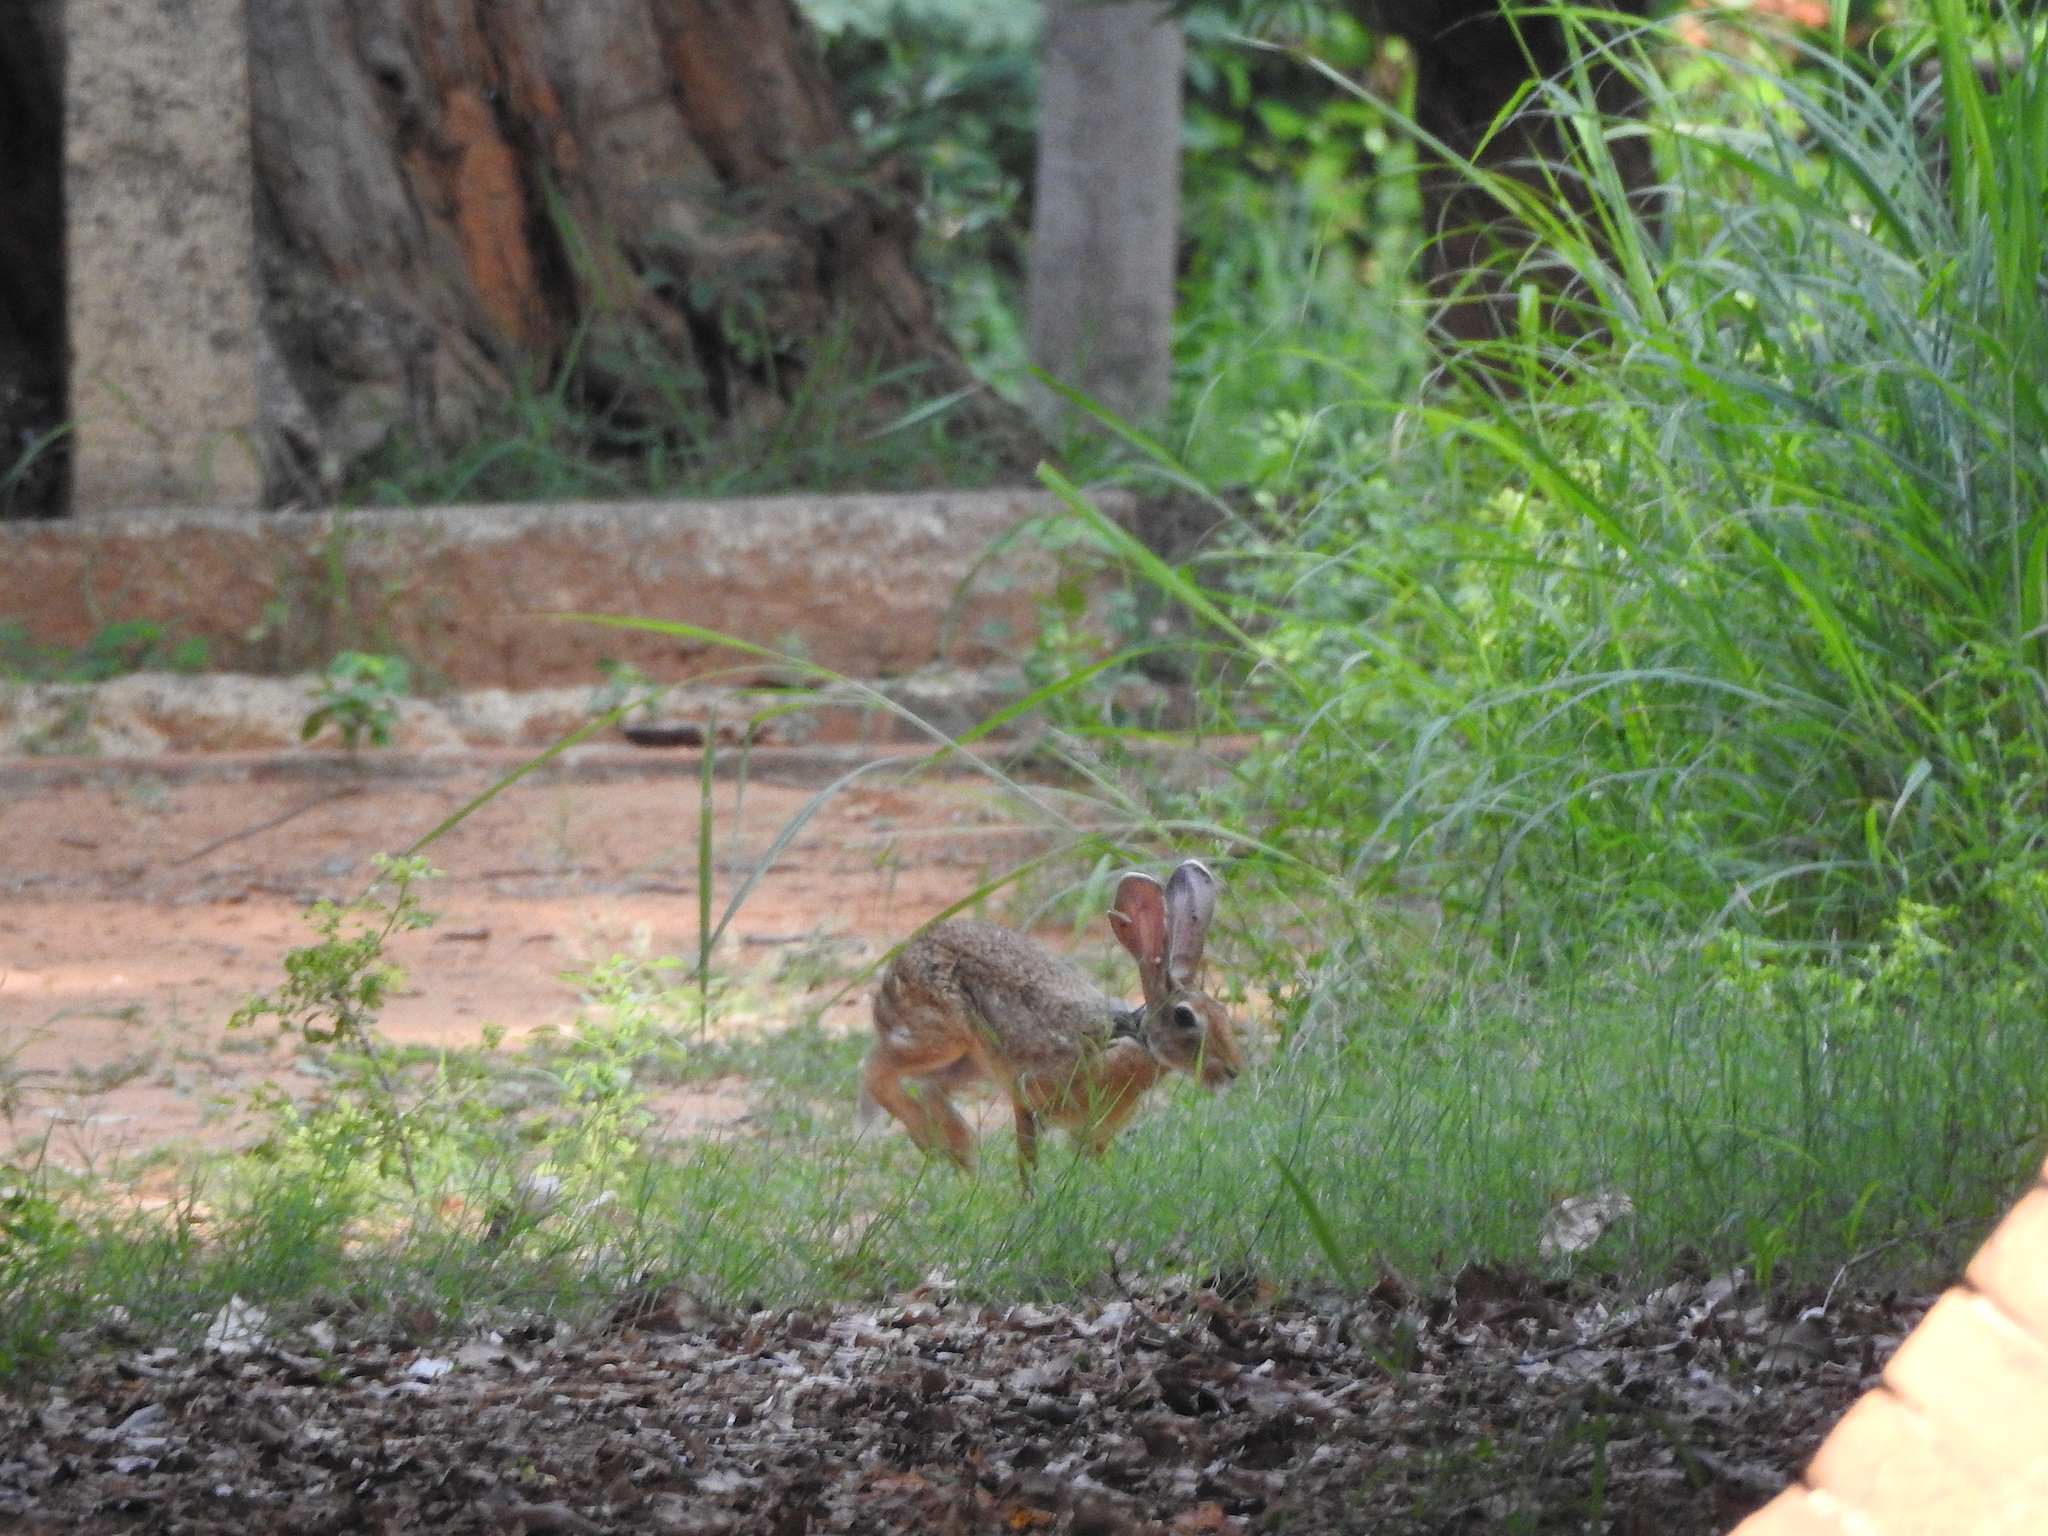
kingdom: Animalia
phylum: Chordata
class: Mammalia
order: Lagomorpha
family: Leporidae
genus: Lepus
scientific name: Lepus nigricollis
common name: Indian hare
